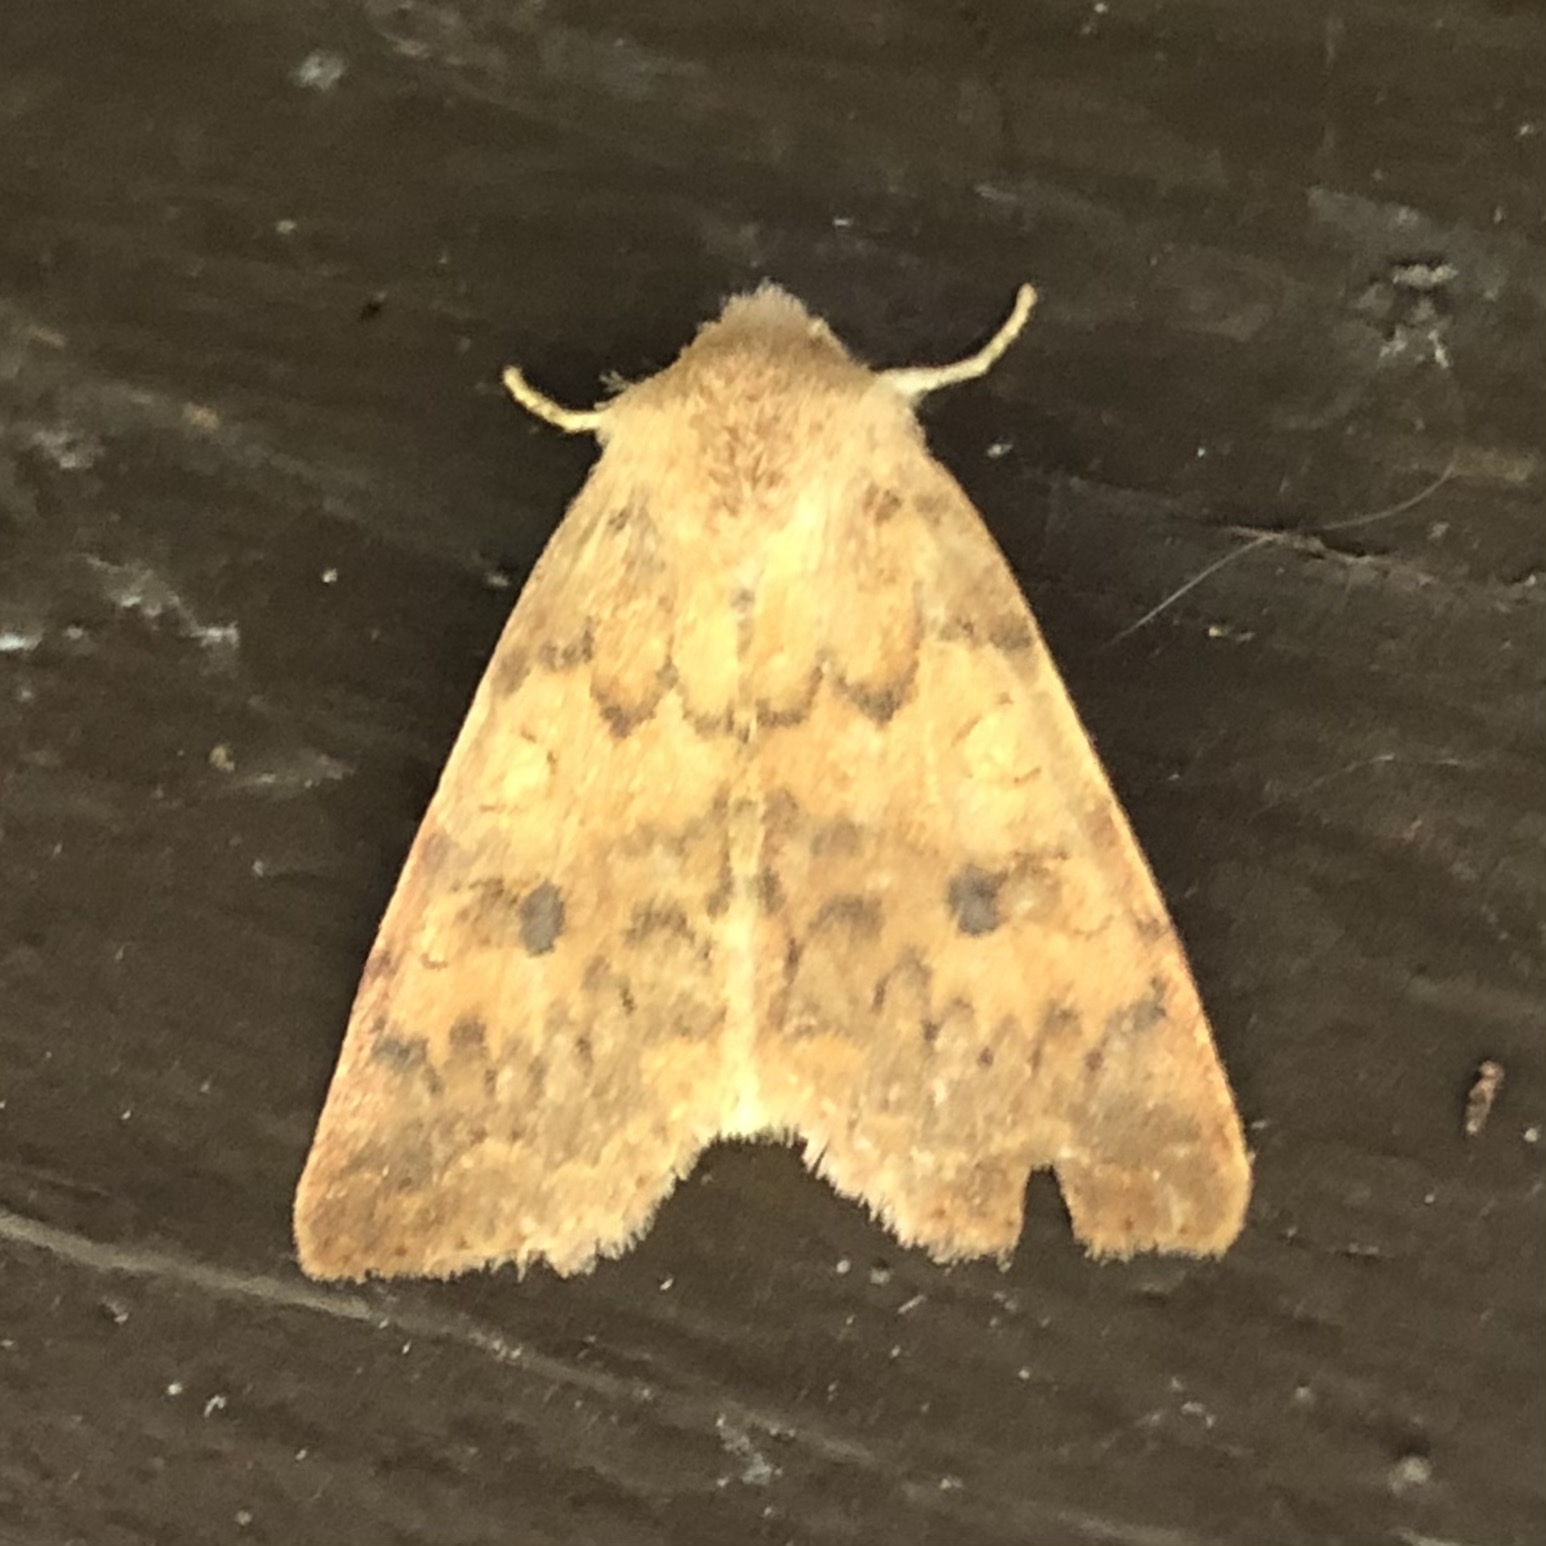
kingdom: Animalia
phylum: Arthropoda
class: Insecta
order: Lepidoptera
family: Noctuidae
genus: Agrochola
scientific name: Agrochola bicolorago
